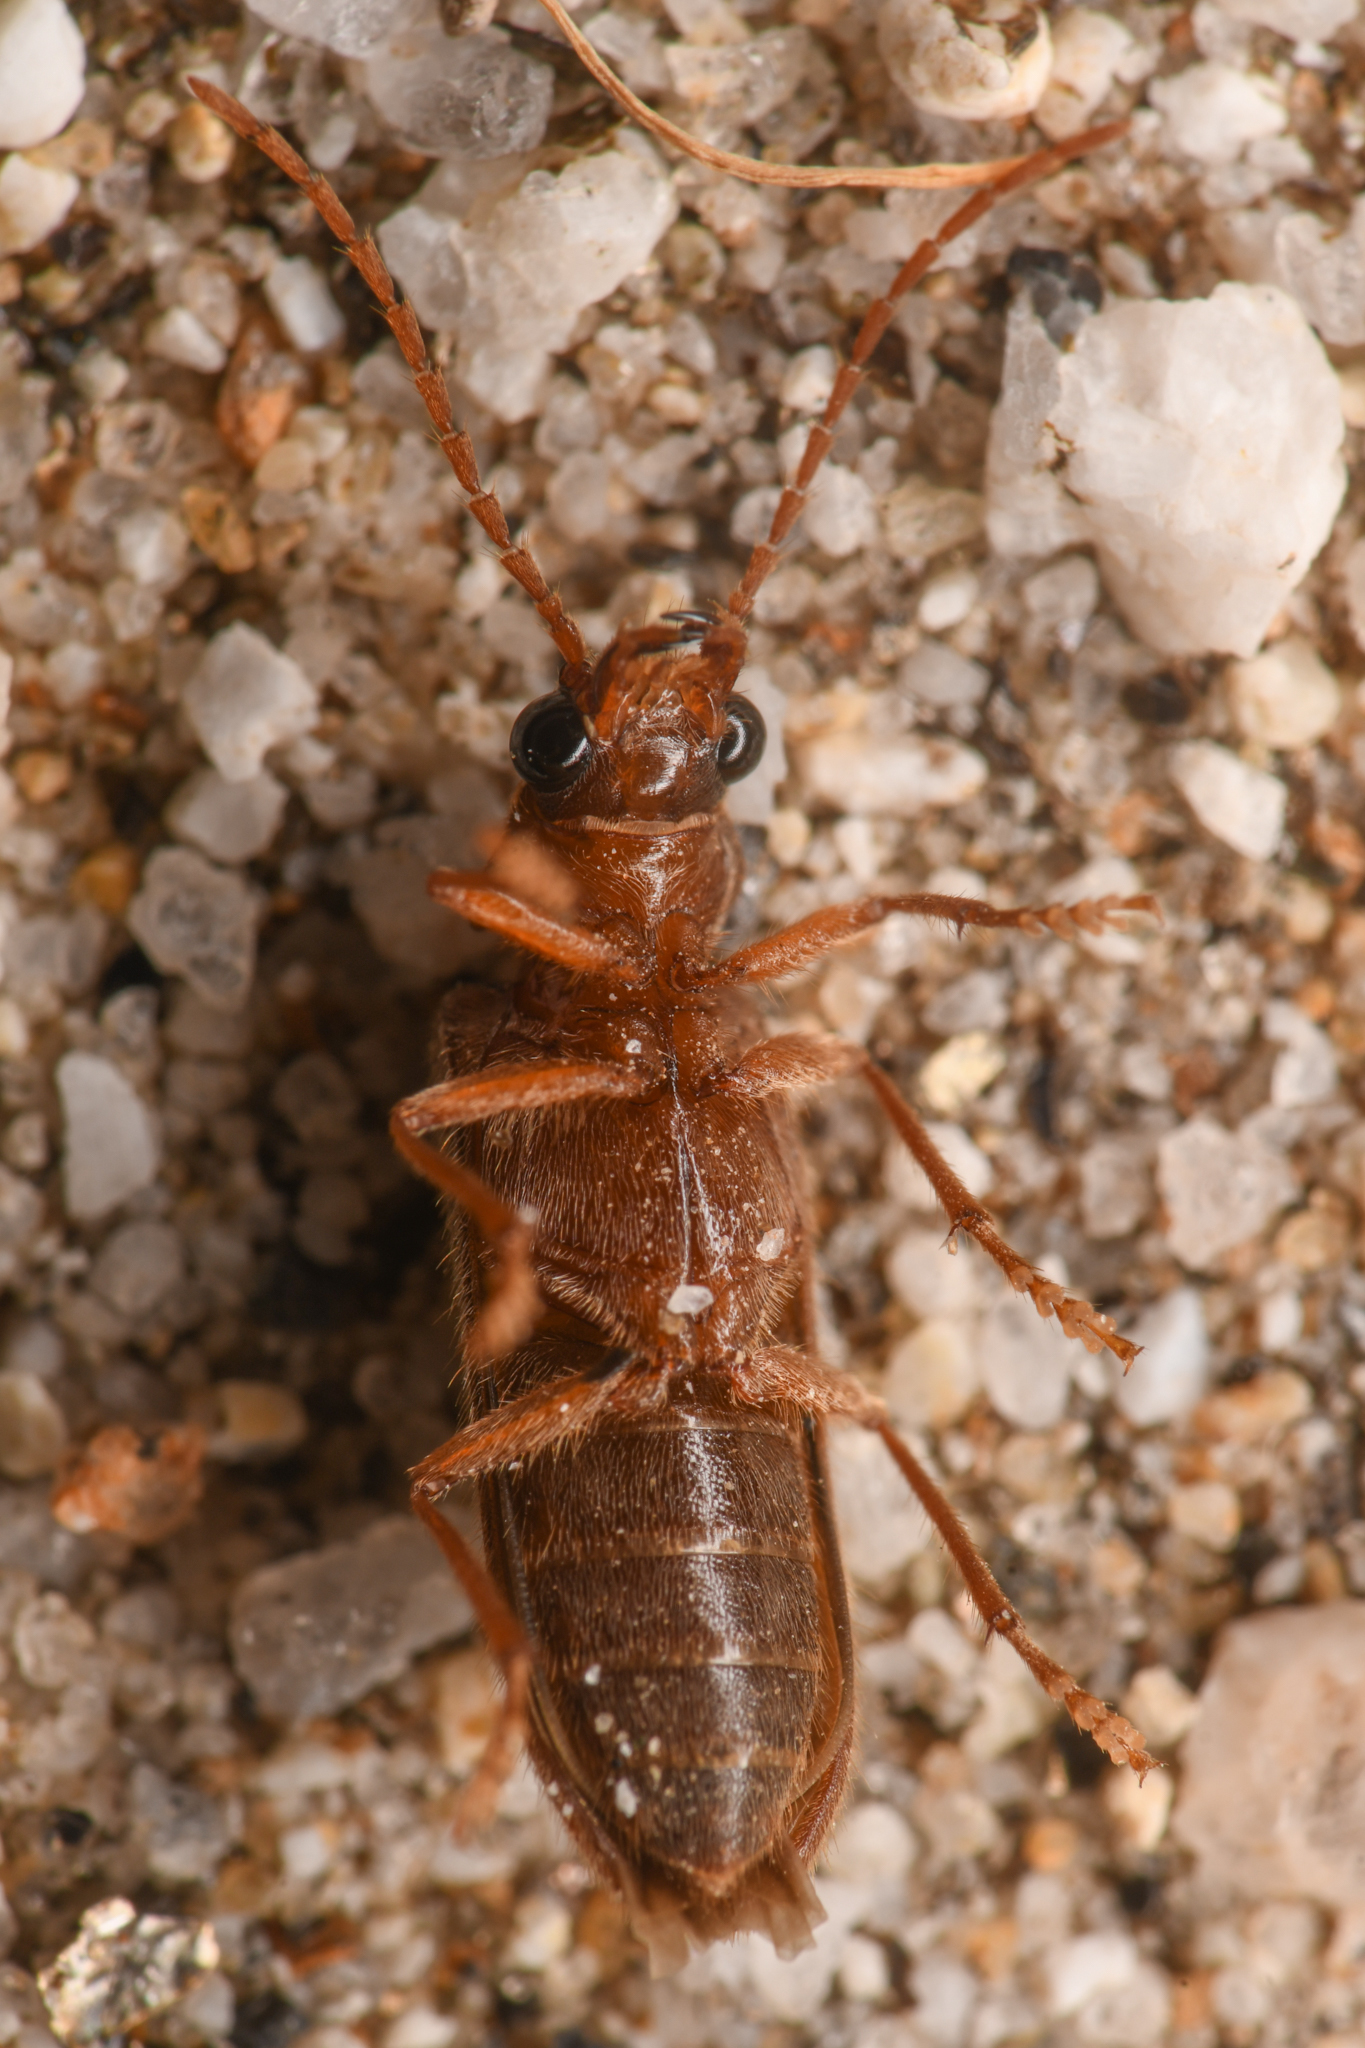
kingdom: Animalia
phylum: Arthropoda
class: Insecta
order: Coleoptera
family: Dascillidae
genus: Anorus
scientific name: Anorus piceus
